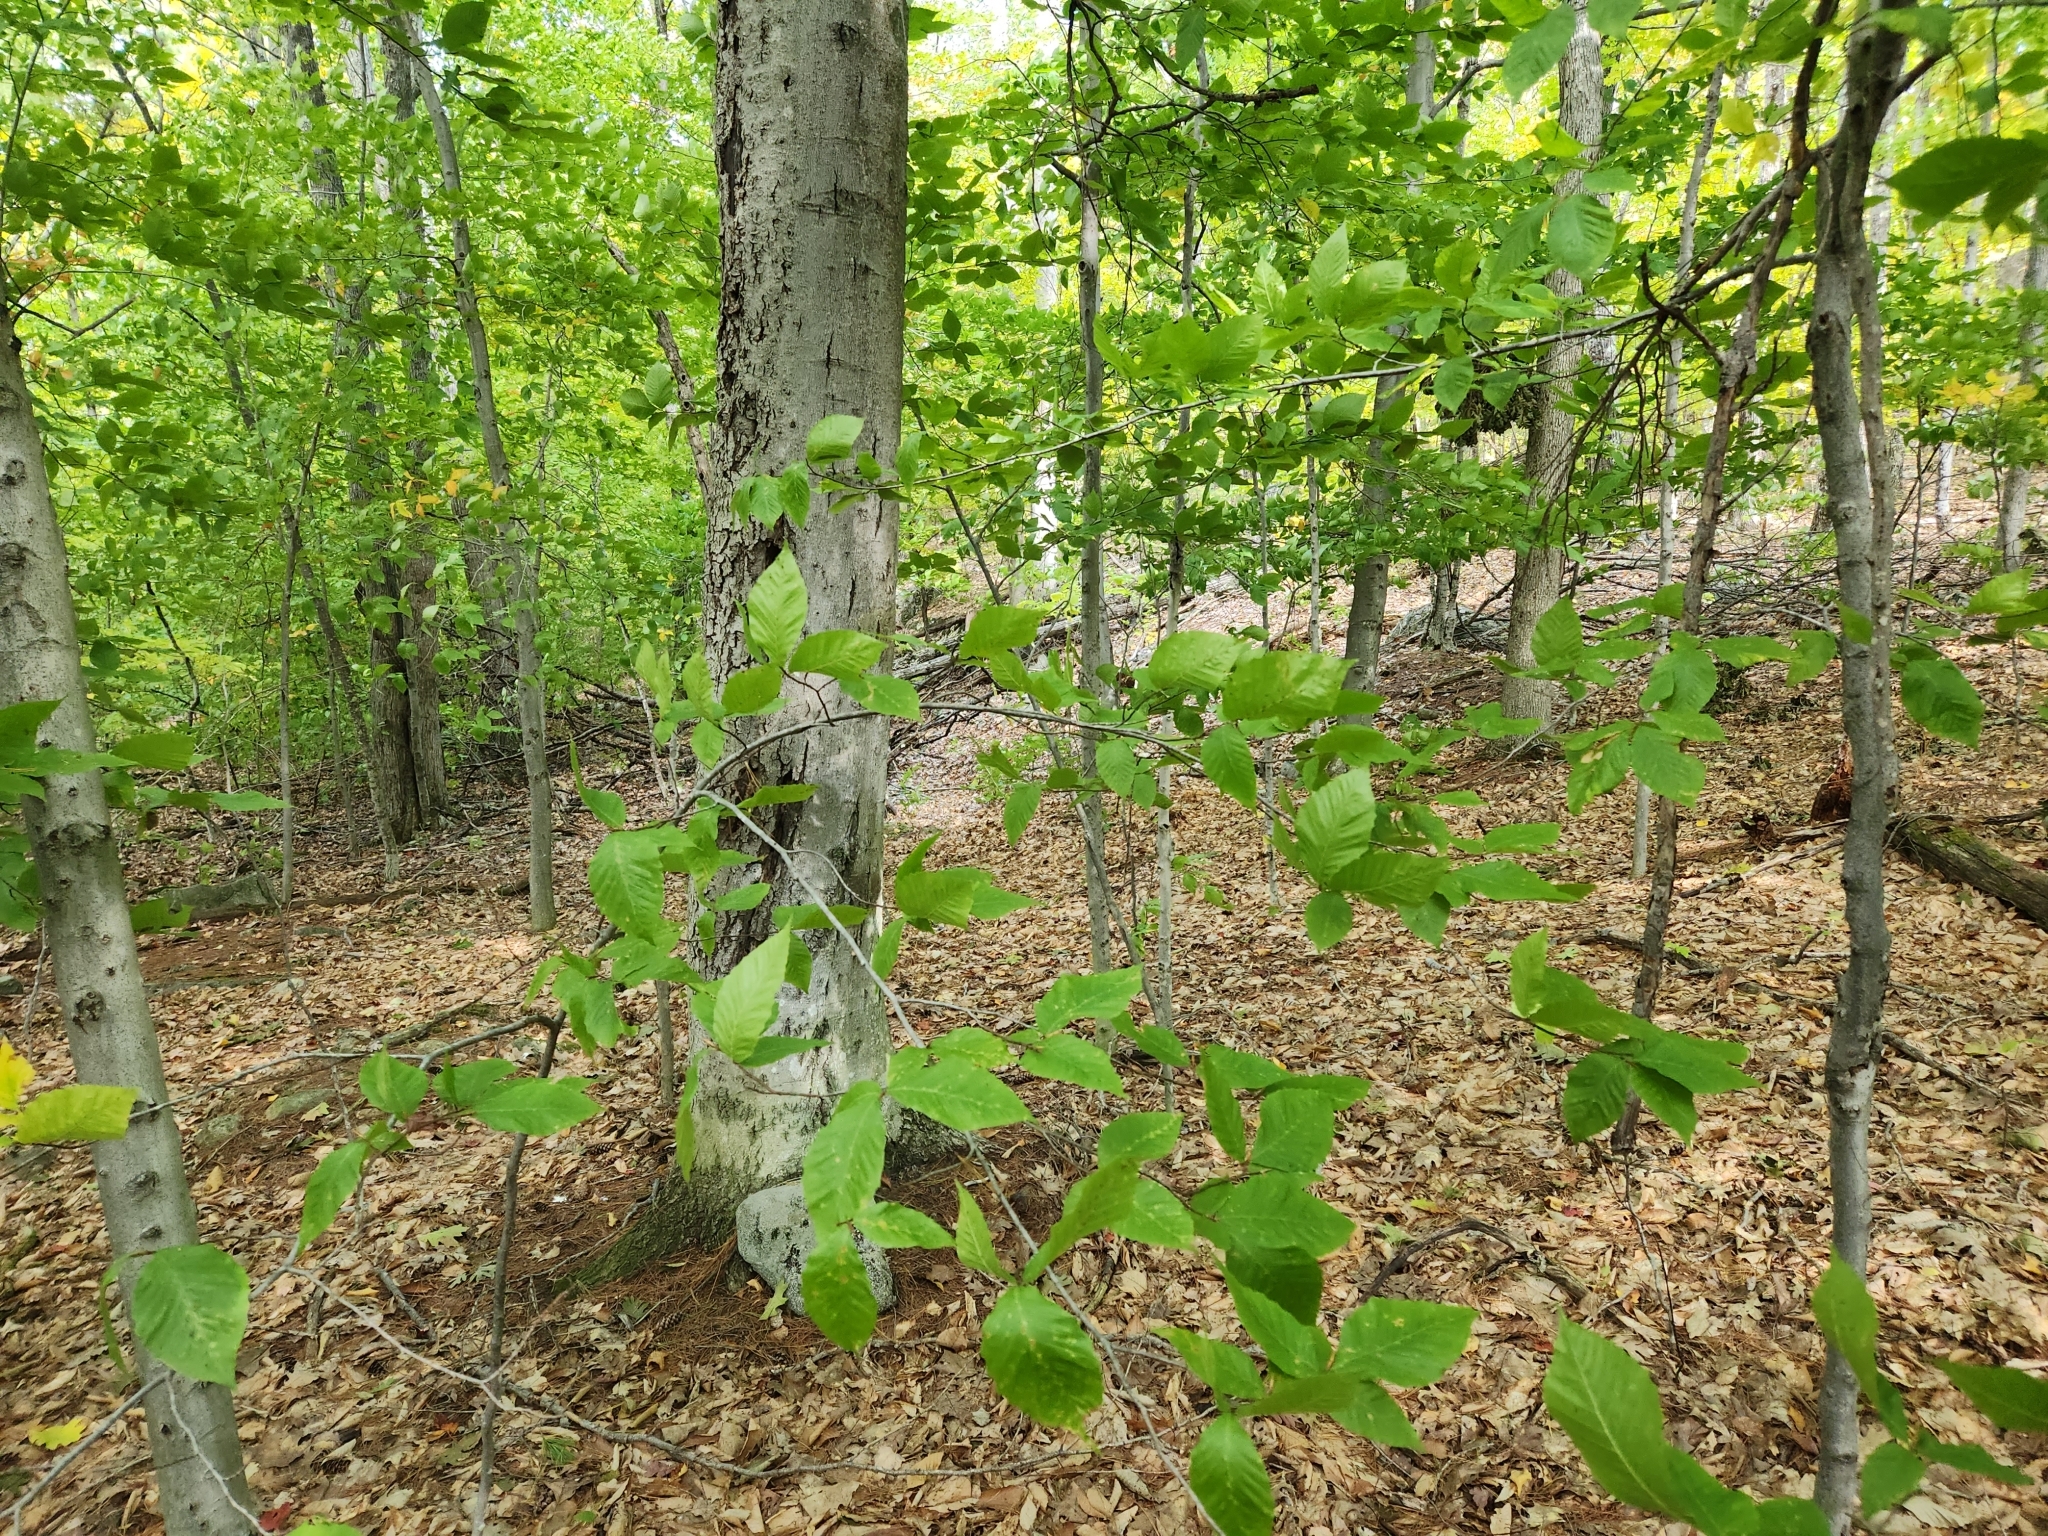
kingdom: Plantae
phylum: Tracheophyta
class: Magnoliopsida
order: Fagales
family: Fagaceae
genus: Fagus
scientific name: Fagus grandifolia
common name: American beech
